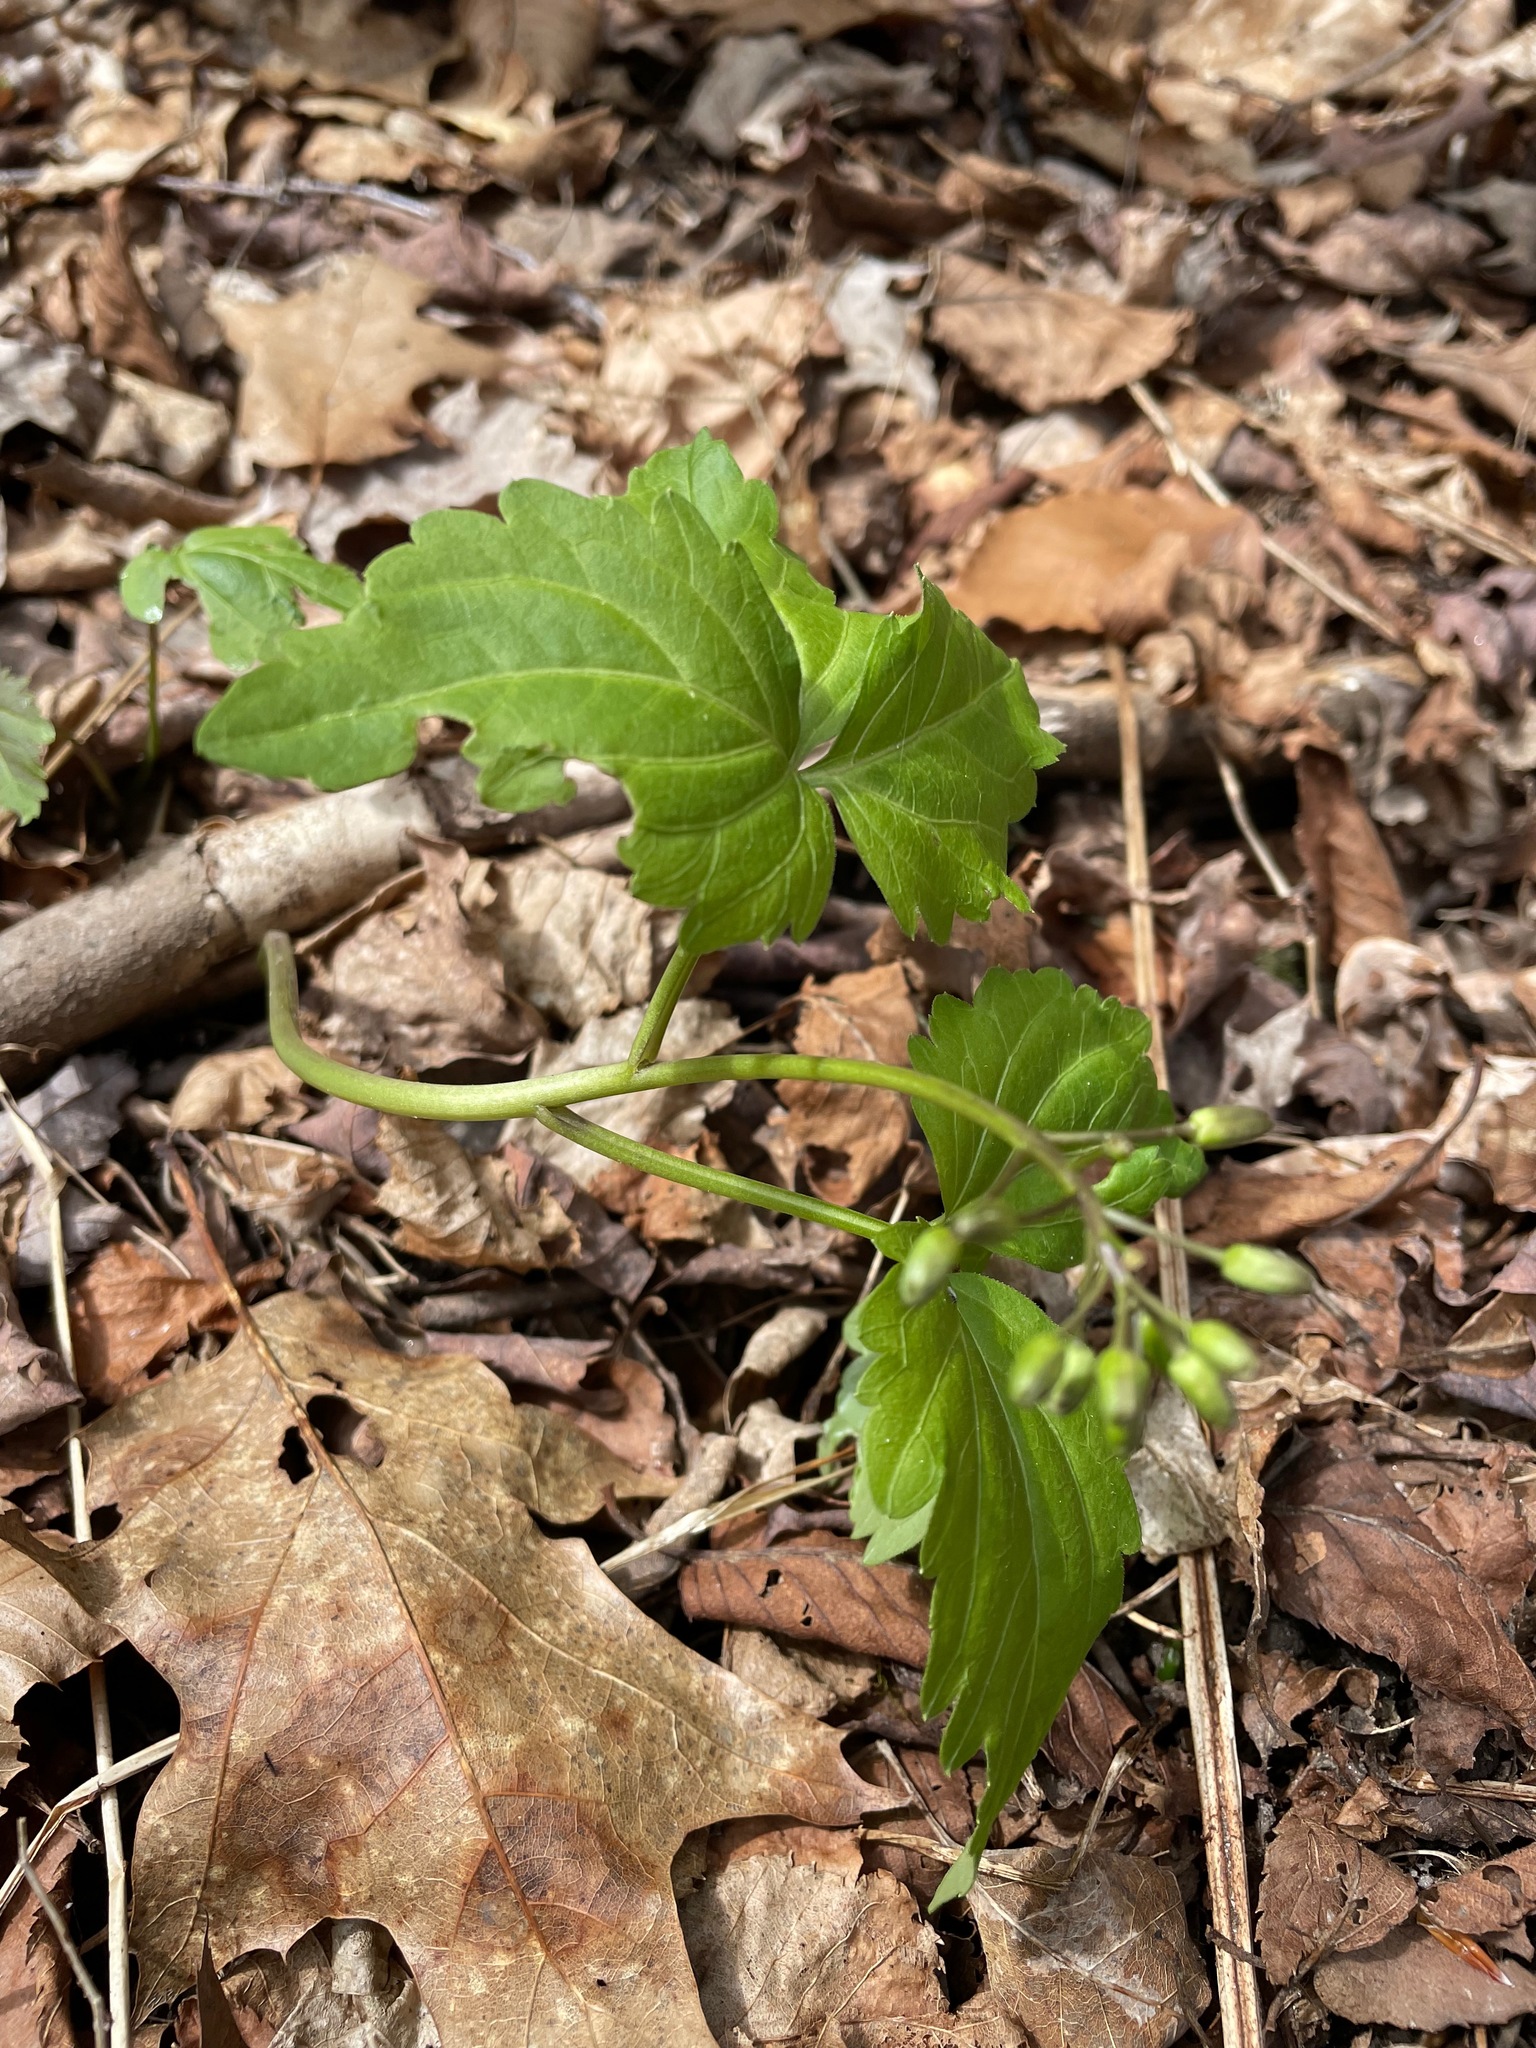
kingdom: Plantae
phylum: Tracheophyta
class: Magnoliopsida
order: Brassicales
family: Brassicaceae
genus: Cardamine
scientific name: Cardamine diphylla
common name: Broad-leaved toothwort
